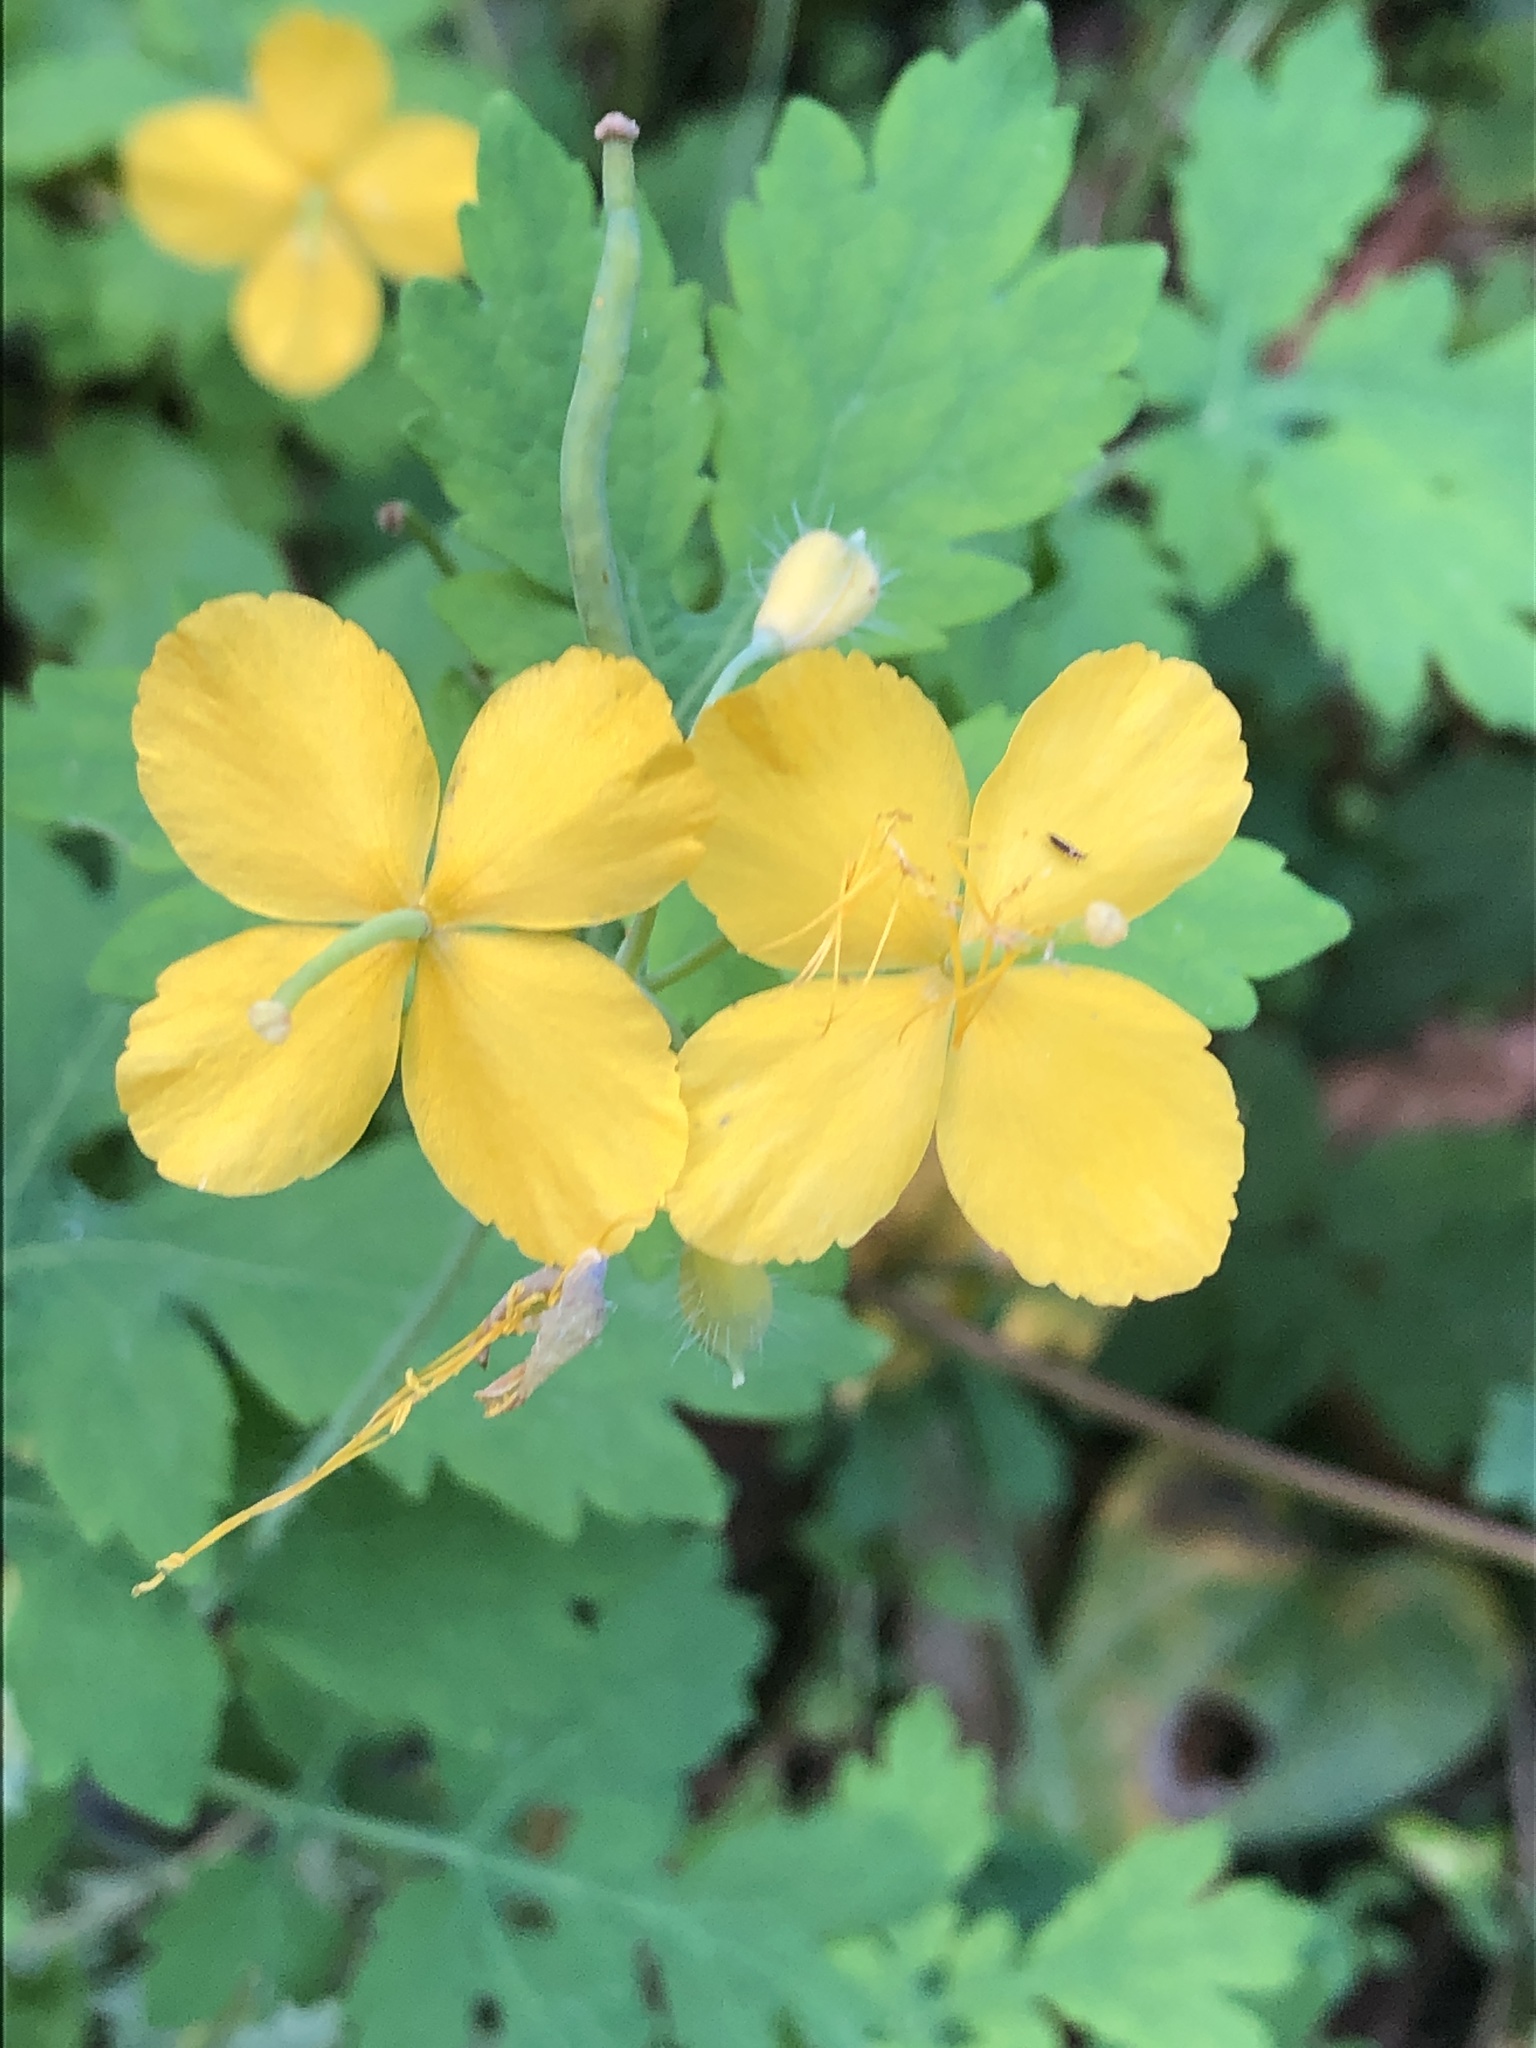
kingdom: Plantae
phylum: Tracheophyta
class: Magnoliopsida
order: Ranunculales
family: Papaveraceae
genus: Chelidonium
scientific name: Chelidonium majus
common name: Greater celandine
